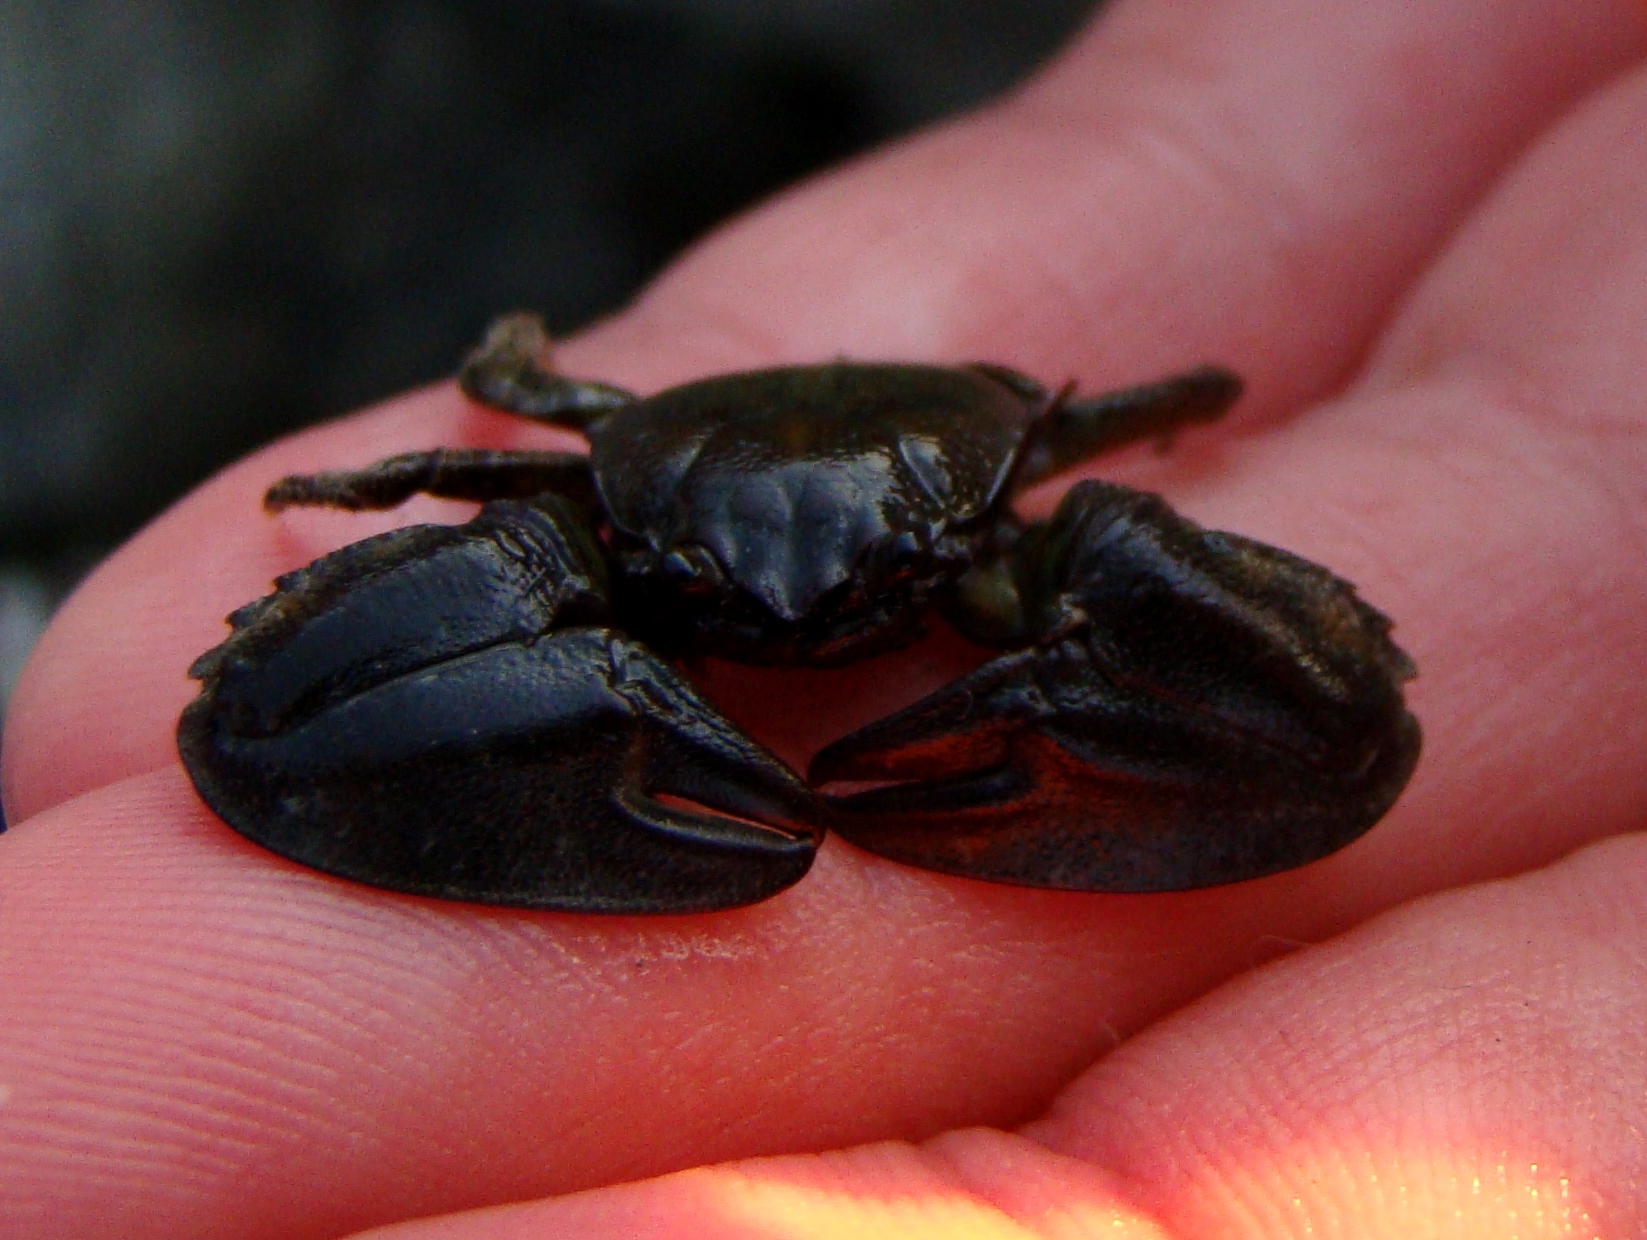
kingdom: Animalia
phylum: Arthropoda
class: Malacostraca
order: Decapoda
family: Porcellanidae
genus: Petrolisthes
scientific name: Petrolisthes elongatus
